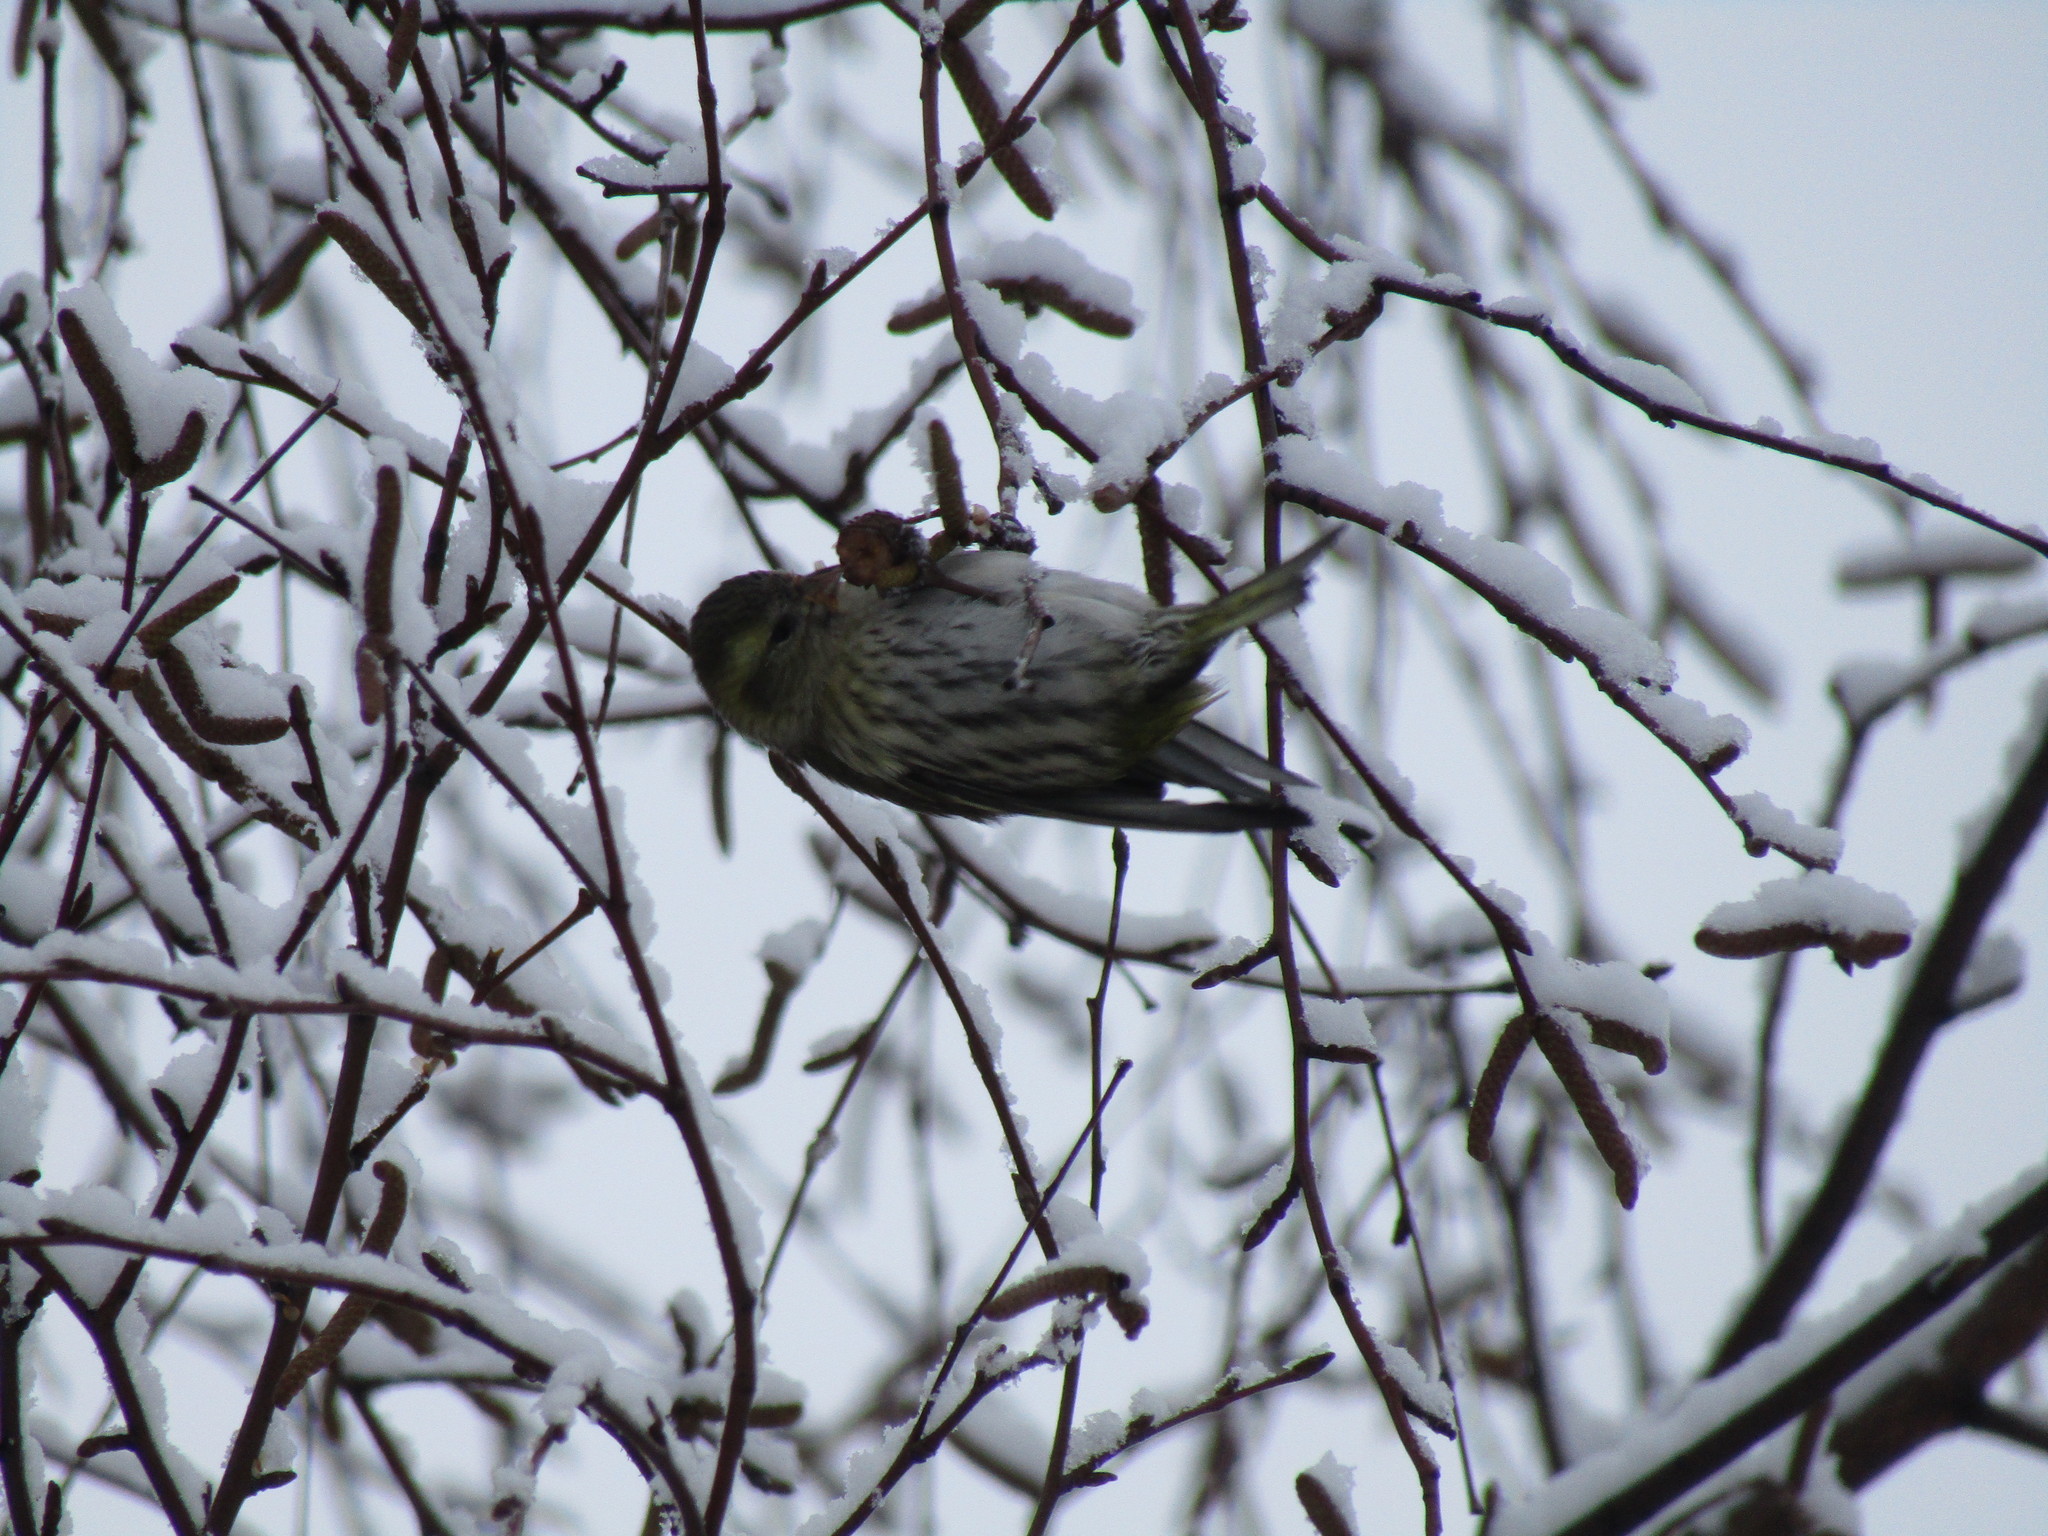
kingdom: Animalia
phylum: Chordata
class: Aves
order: Passeriformes
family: Fringillidae
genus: Spinus
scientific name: Spinus spinus
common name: Eurasian siskin
